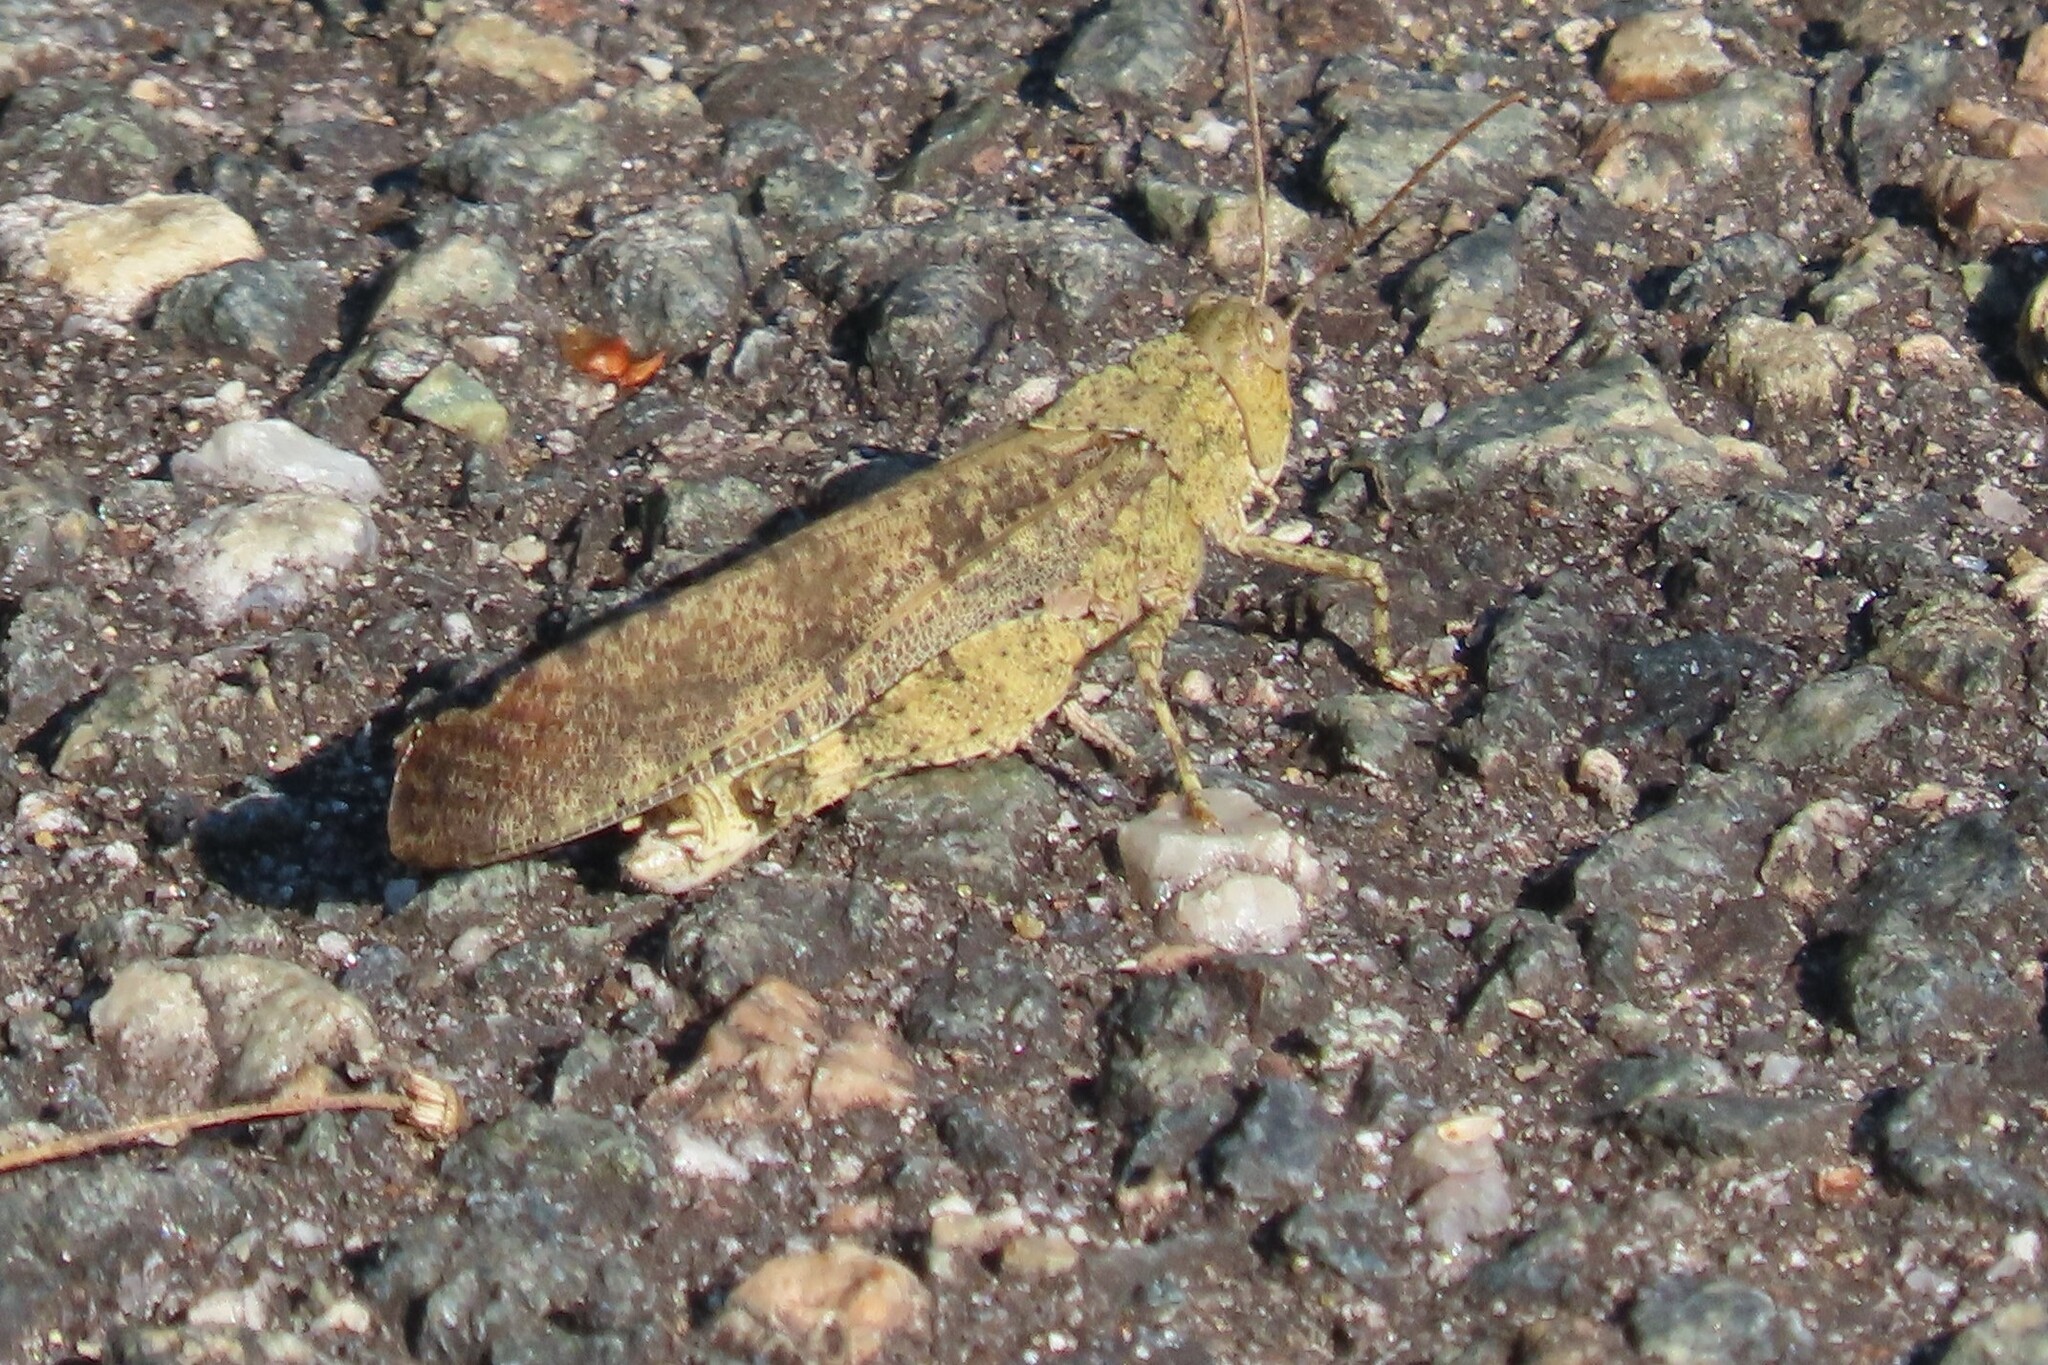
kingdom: Animalia
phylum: Arthropoda
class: Insecta
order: Orthoptera
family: Acrididae
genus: Dissosteira
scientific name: Dissosteira carolina
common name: Carolina grasshopper
